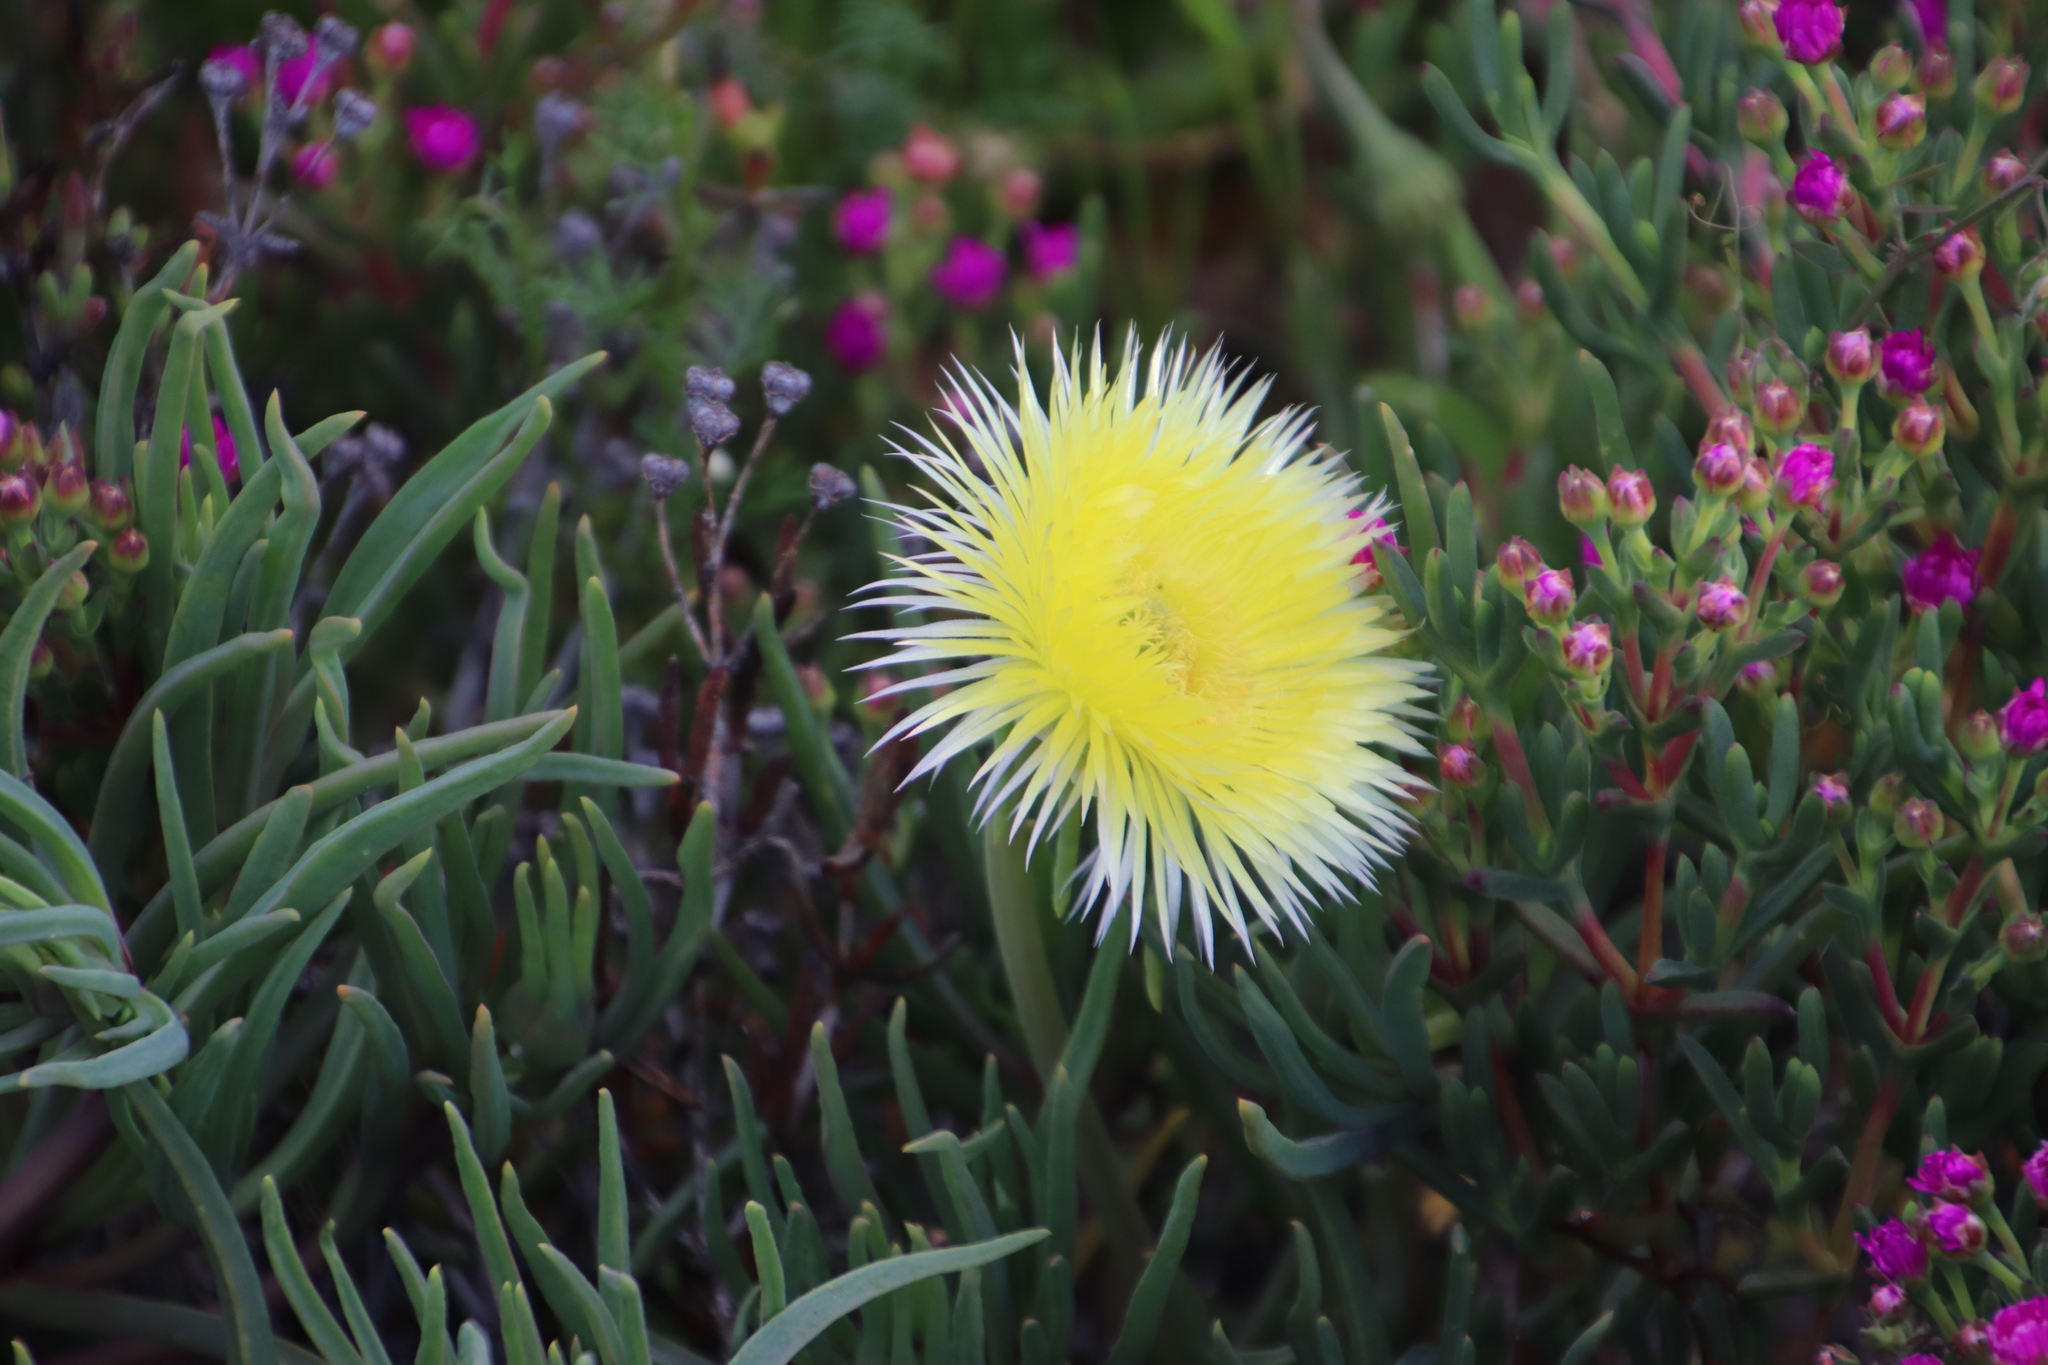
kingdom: Plantae
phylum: Tracheophyta
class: Magnoliopsida
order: Caryophyllales
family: Aizoaceae
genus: Conicosia
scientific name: Conicosia pugioniformis
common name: Narrow-leaved iceplant
